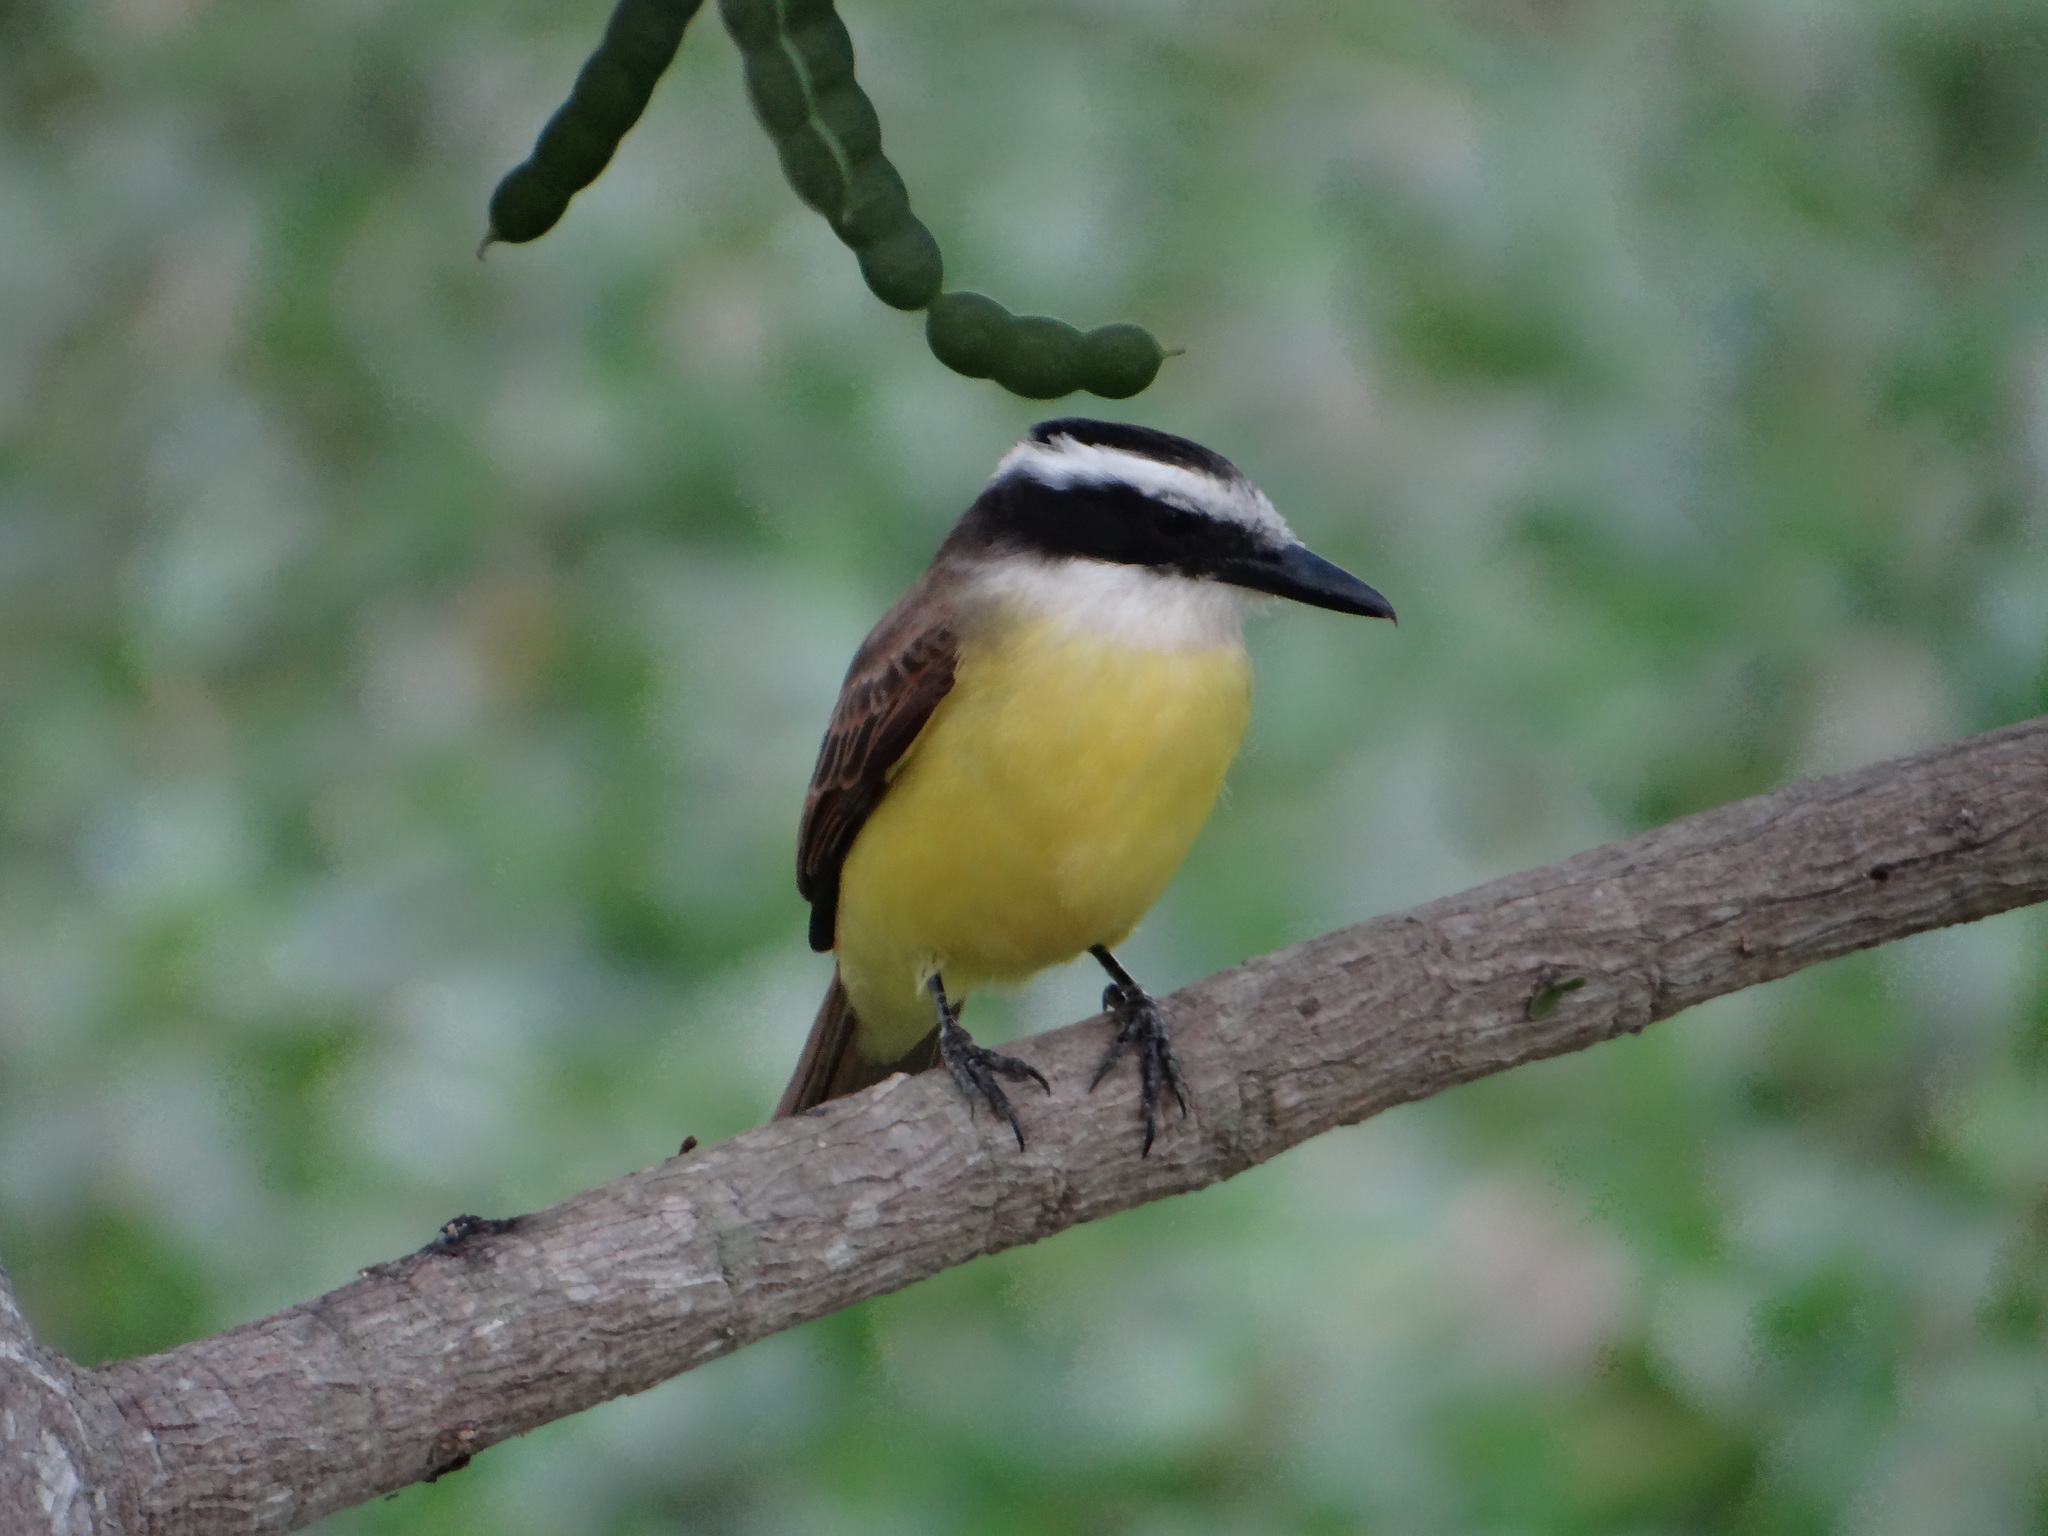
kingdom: Animalia
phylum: Chordata
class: Aves
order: Passeriformes
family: Tyrannidae
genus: Pitangus
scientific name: Pitangus sulphuratus
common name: Great kiskadee
